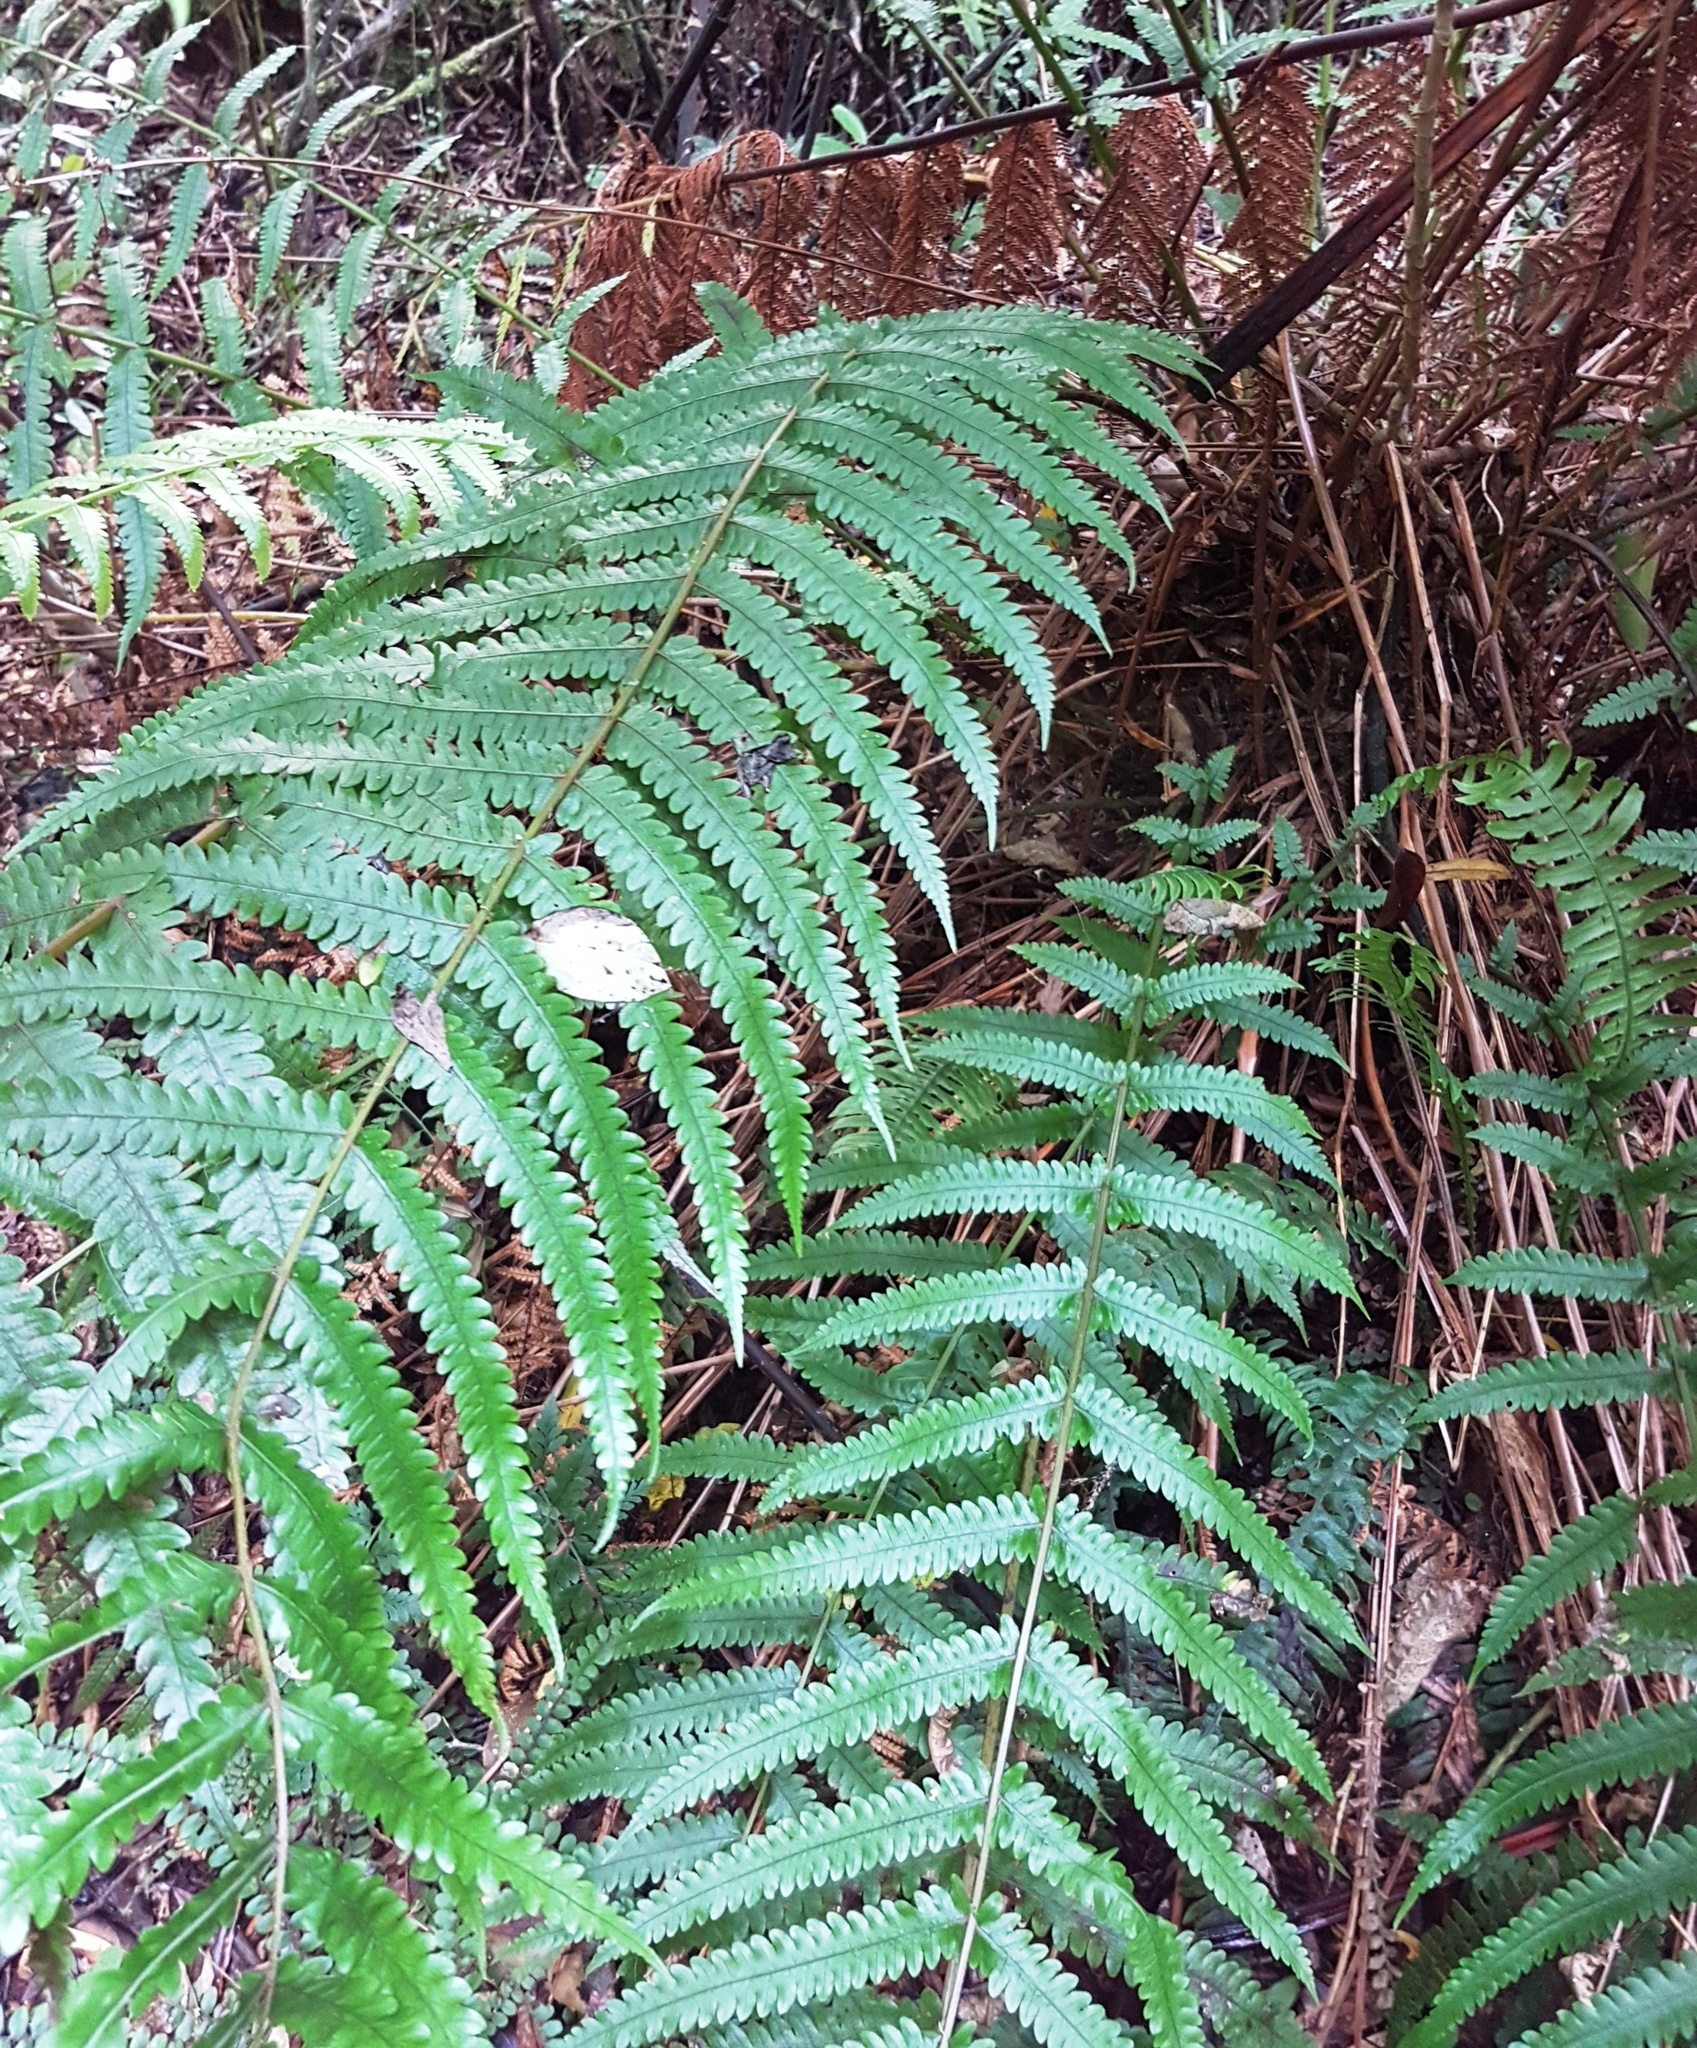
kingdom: Plantae
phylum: Tracheophyta
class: Polypodiopsida
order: Polypodiales
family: Thelypteridaceae
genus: Pakau
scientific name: Pakau pennigera
